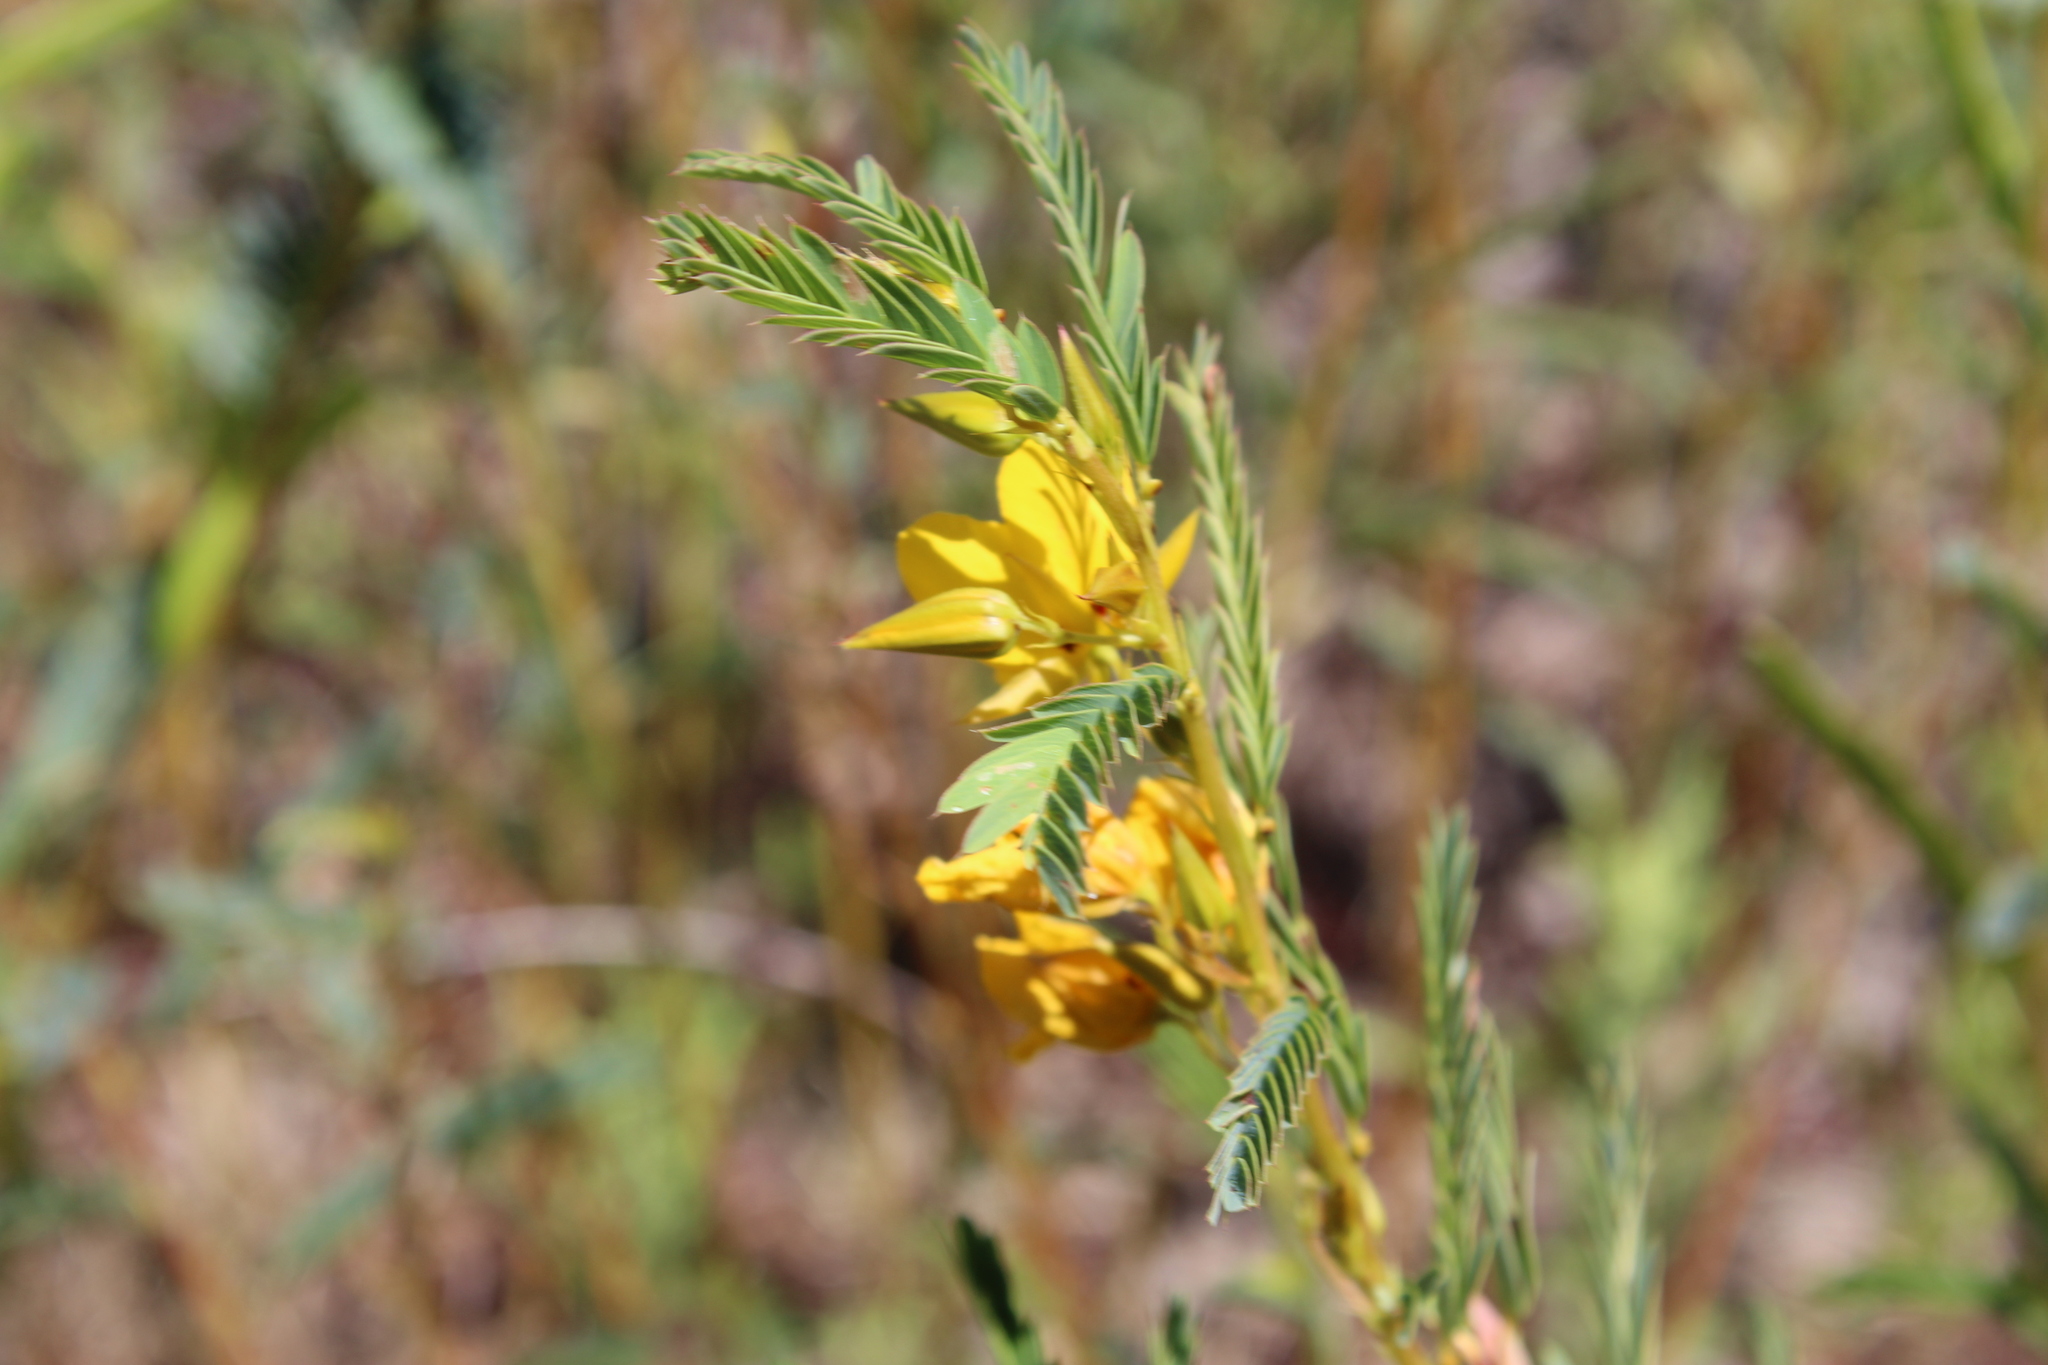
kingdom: Plantae
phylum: Tracheophyta
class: Magnoliopsida
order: Fabales
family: Fabaceae
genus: Chamaecrista
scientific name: Chamaecrista fasciculata
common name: Golden cassia
